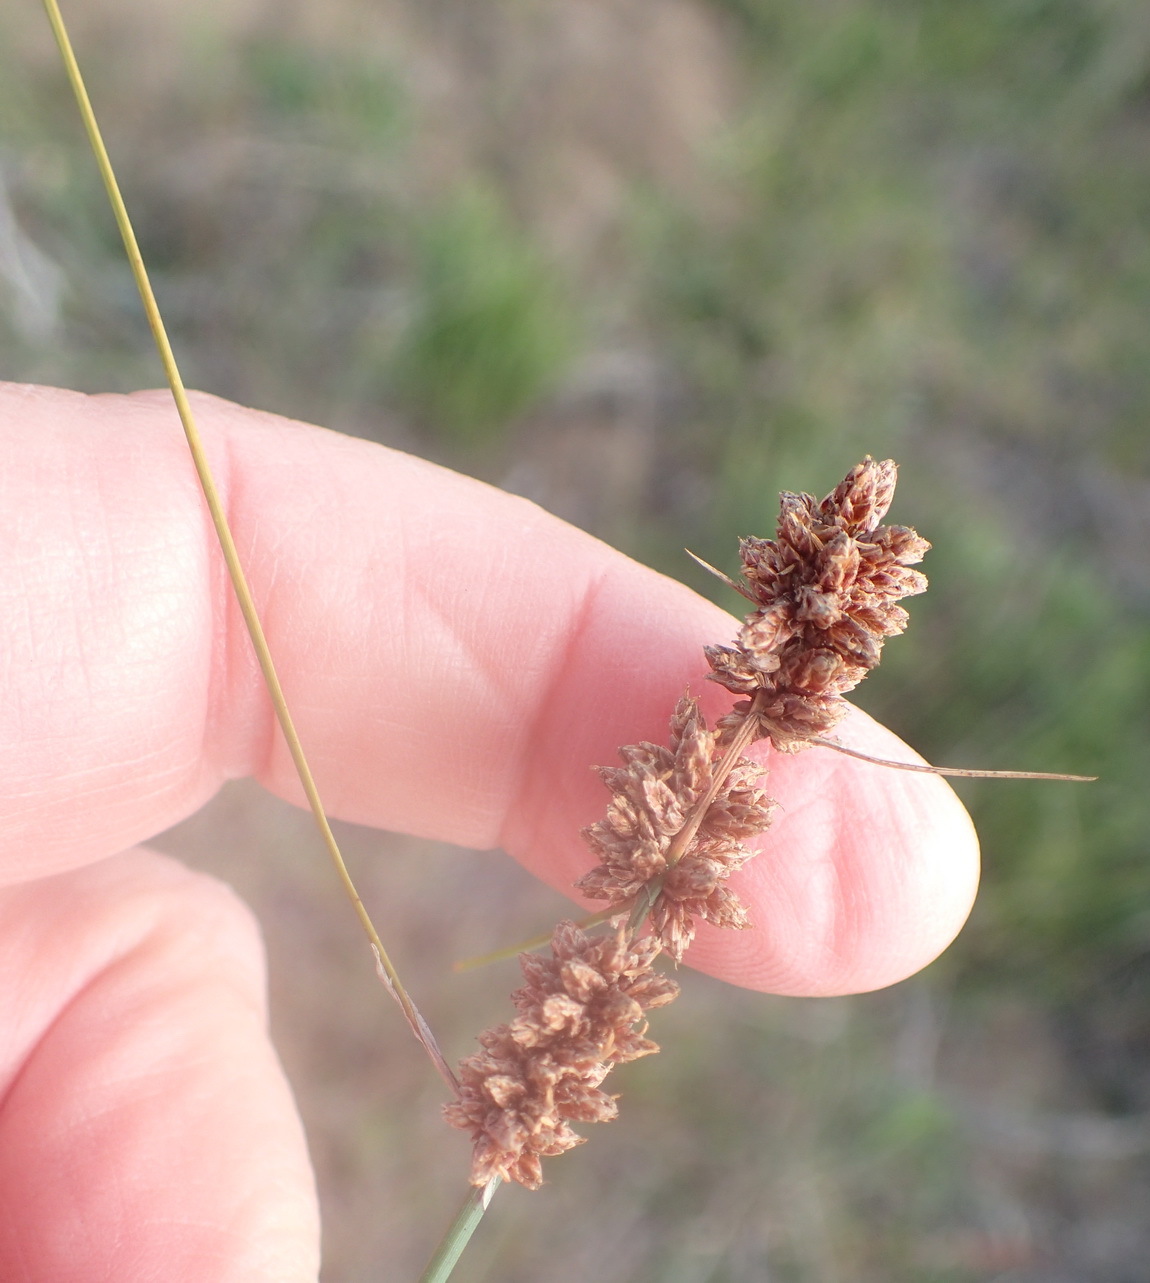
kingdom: Plantae
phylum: Tracheophyta
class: Liliopsida
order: Poales
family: Cyperaceae
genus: Ficinia
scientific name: Ficinia bulbosa
